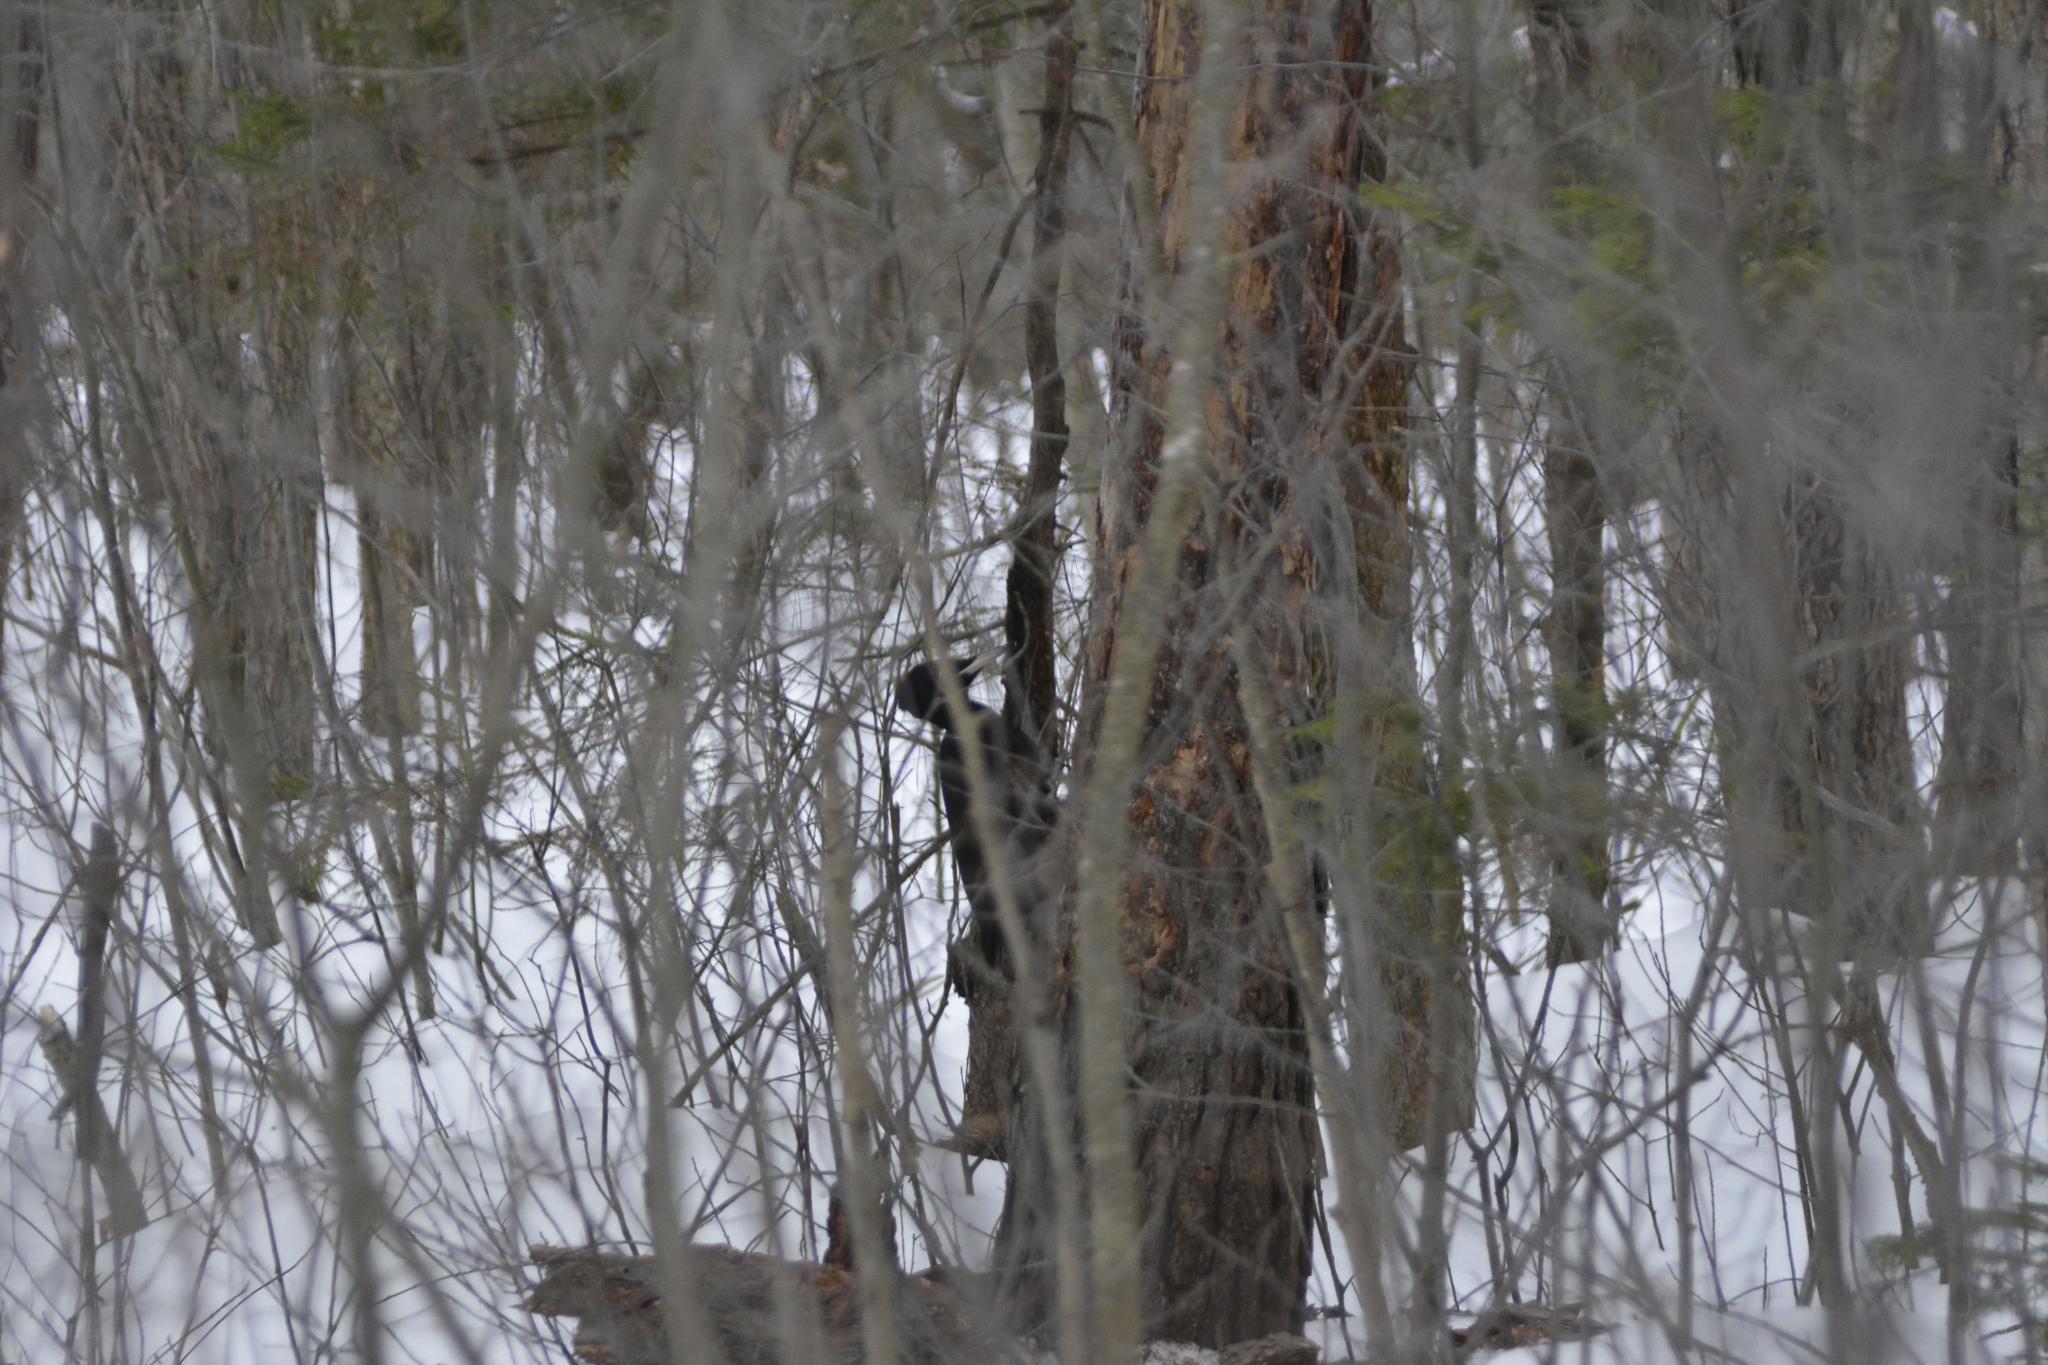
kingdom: Animalia
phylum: Chordata
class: Aves
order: Piciformes
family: Picidae
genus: Dryocopus
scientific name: Dryocopus martius
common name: Black woodpecker
